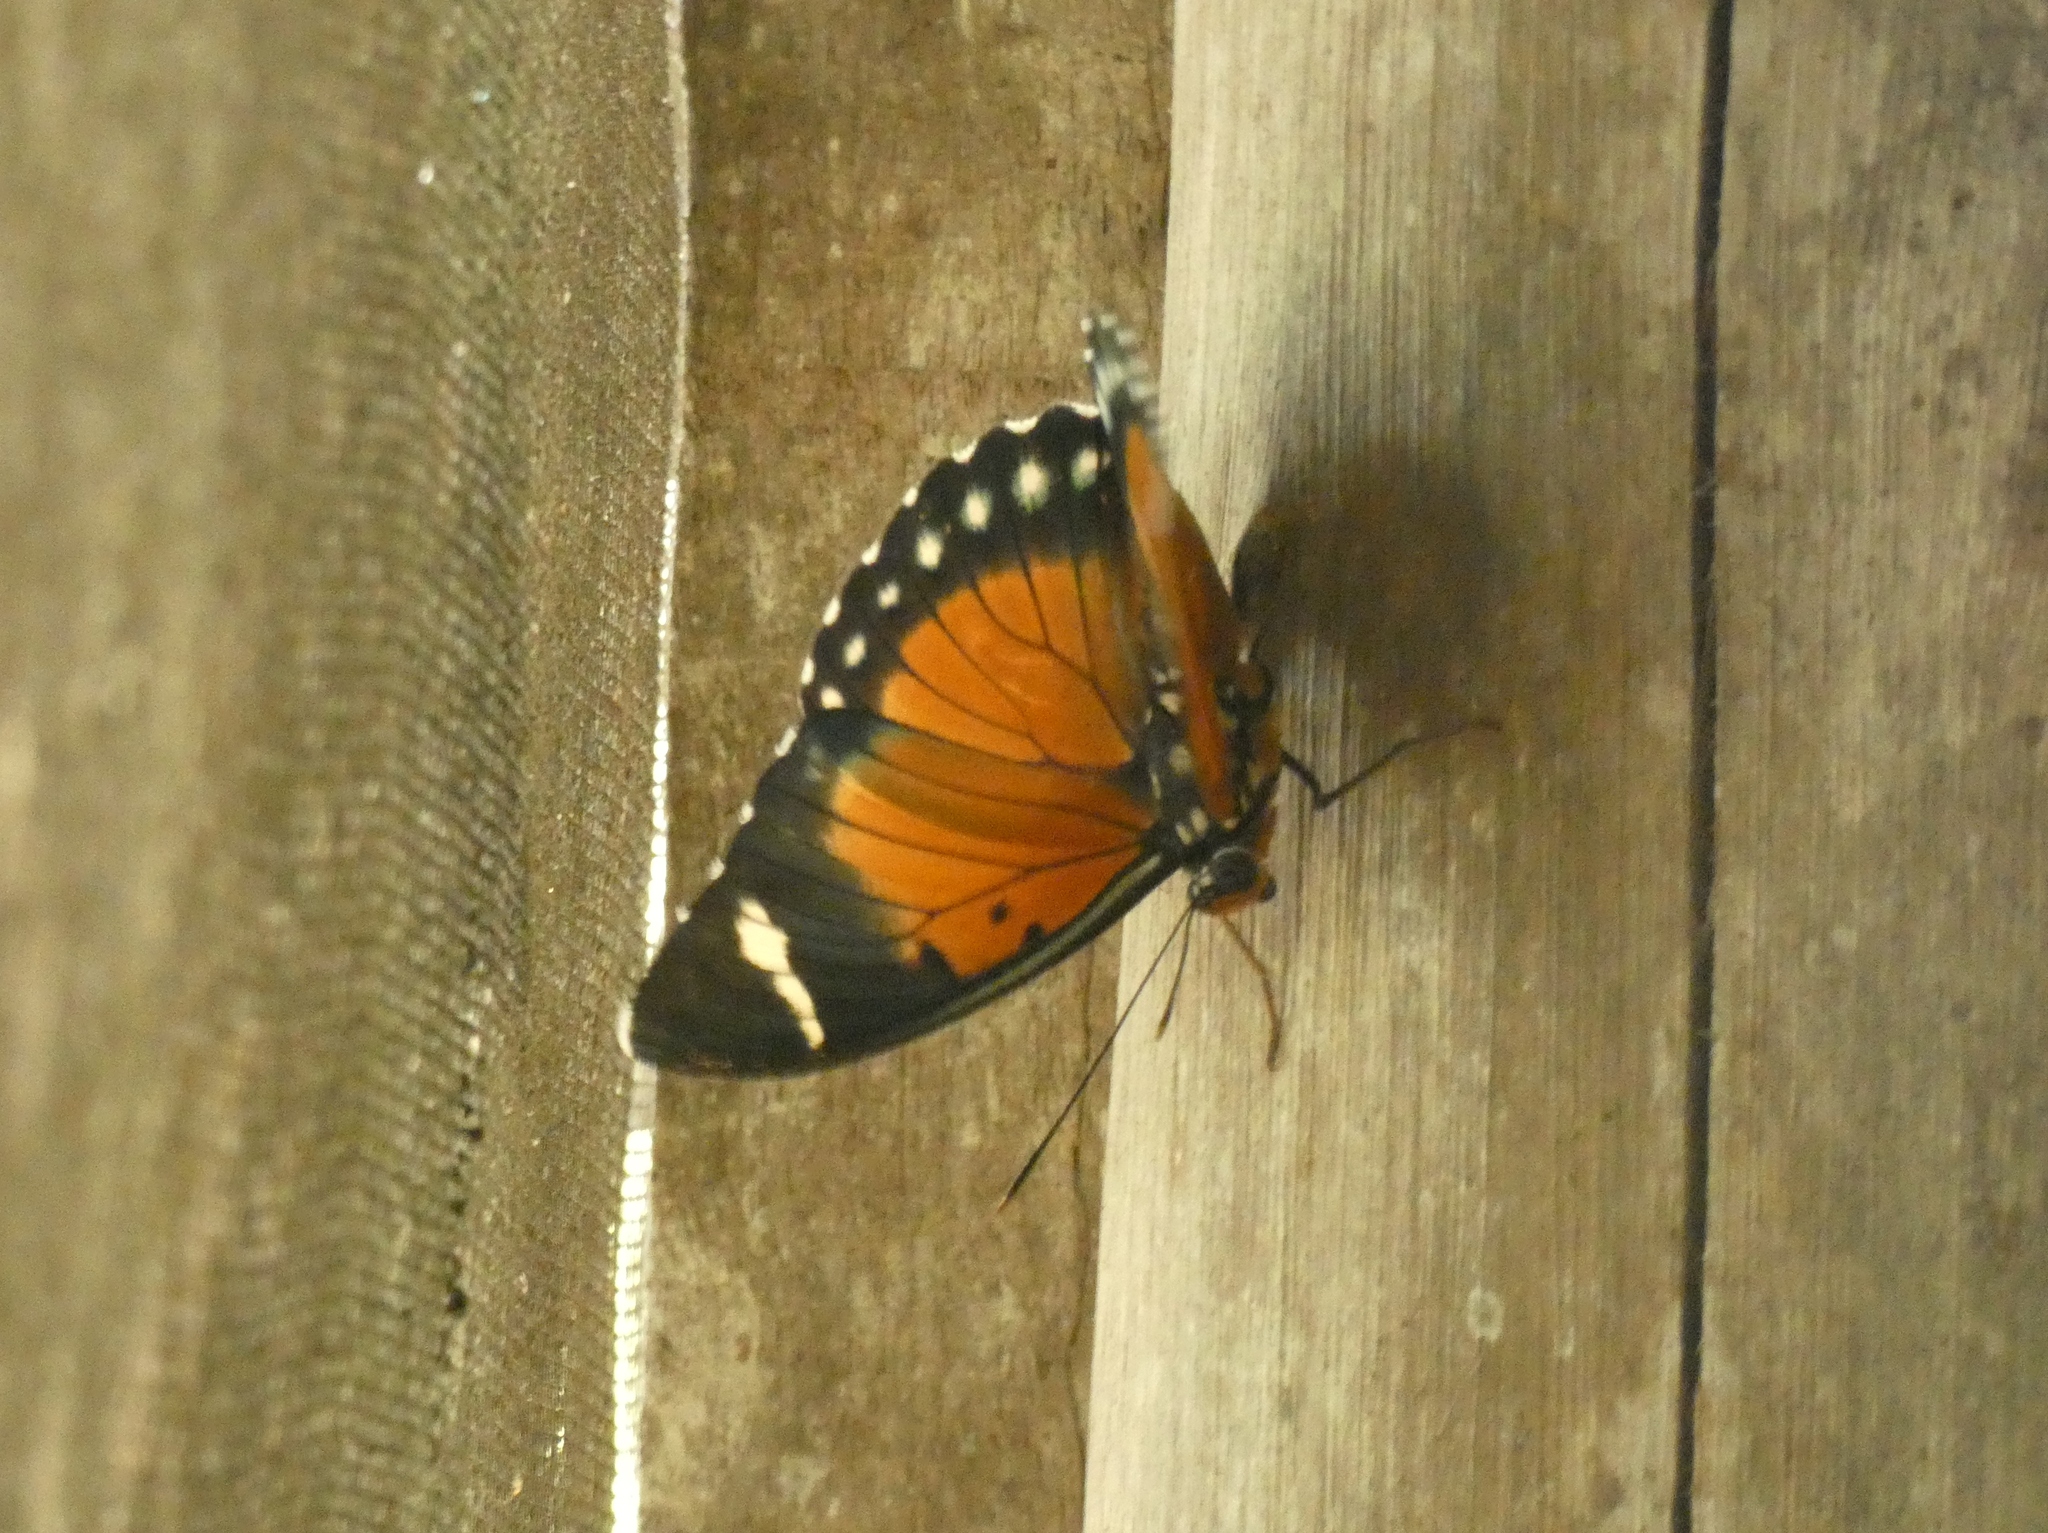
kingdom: Animalia
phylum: Arthropoda
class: Insecta
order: Lepidoptera
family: Nymphalidae
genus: Euphaedra
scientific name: Euphaedra mambili
